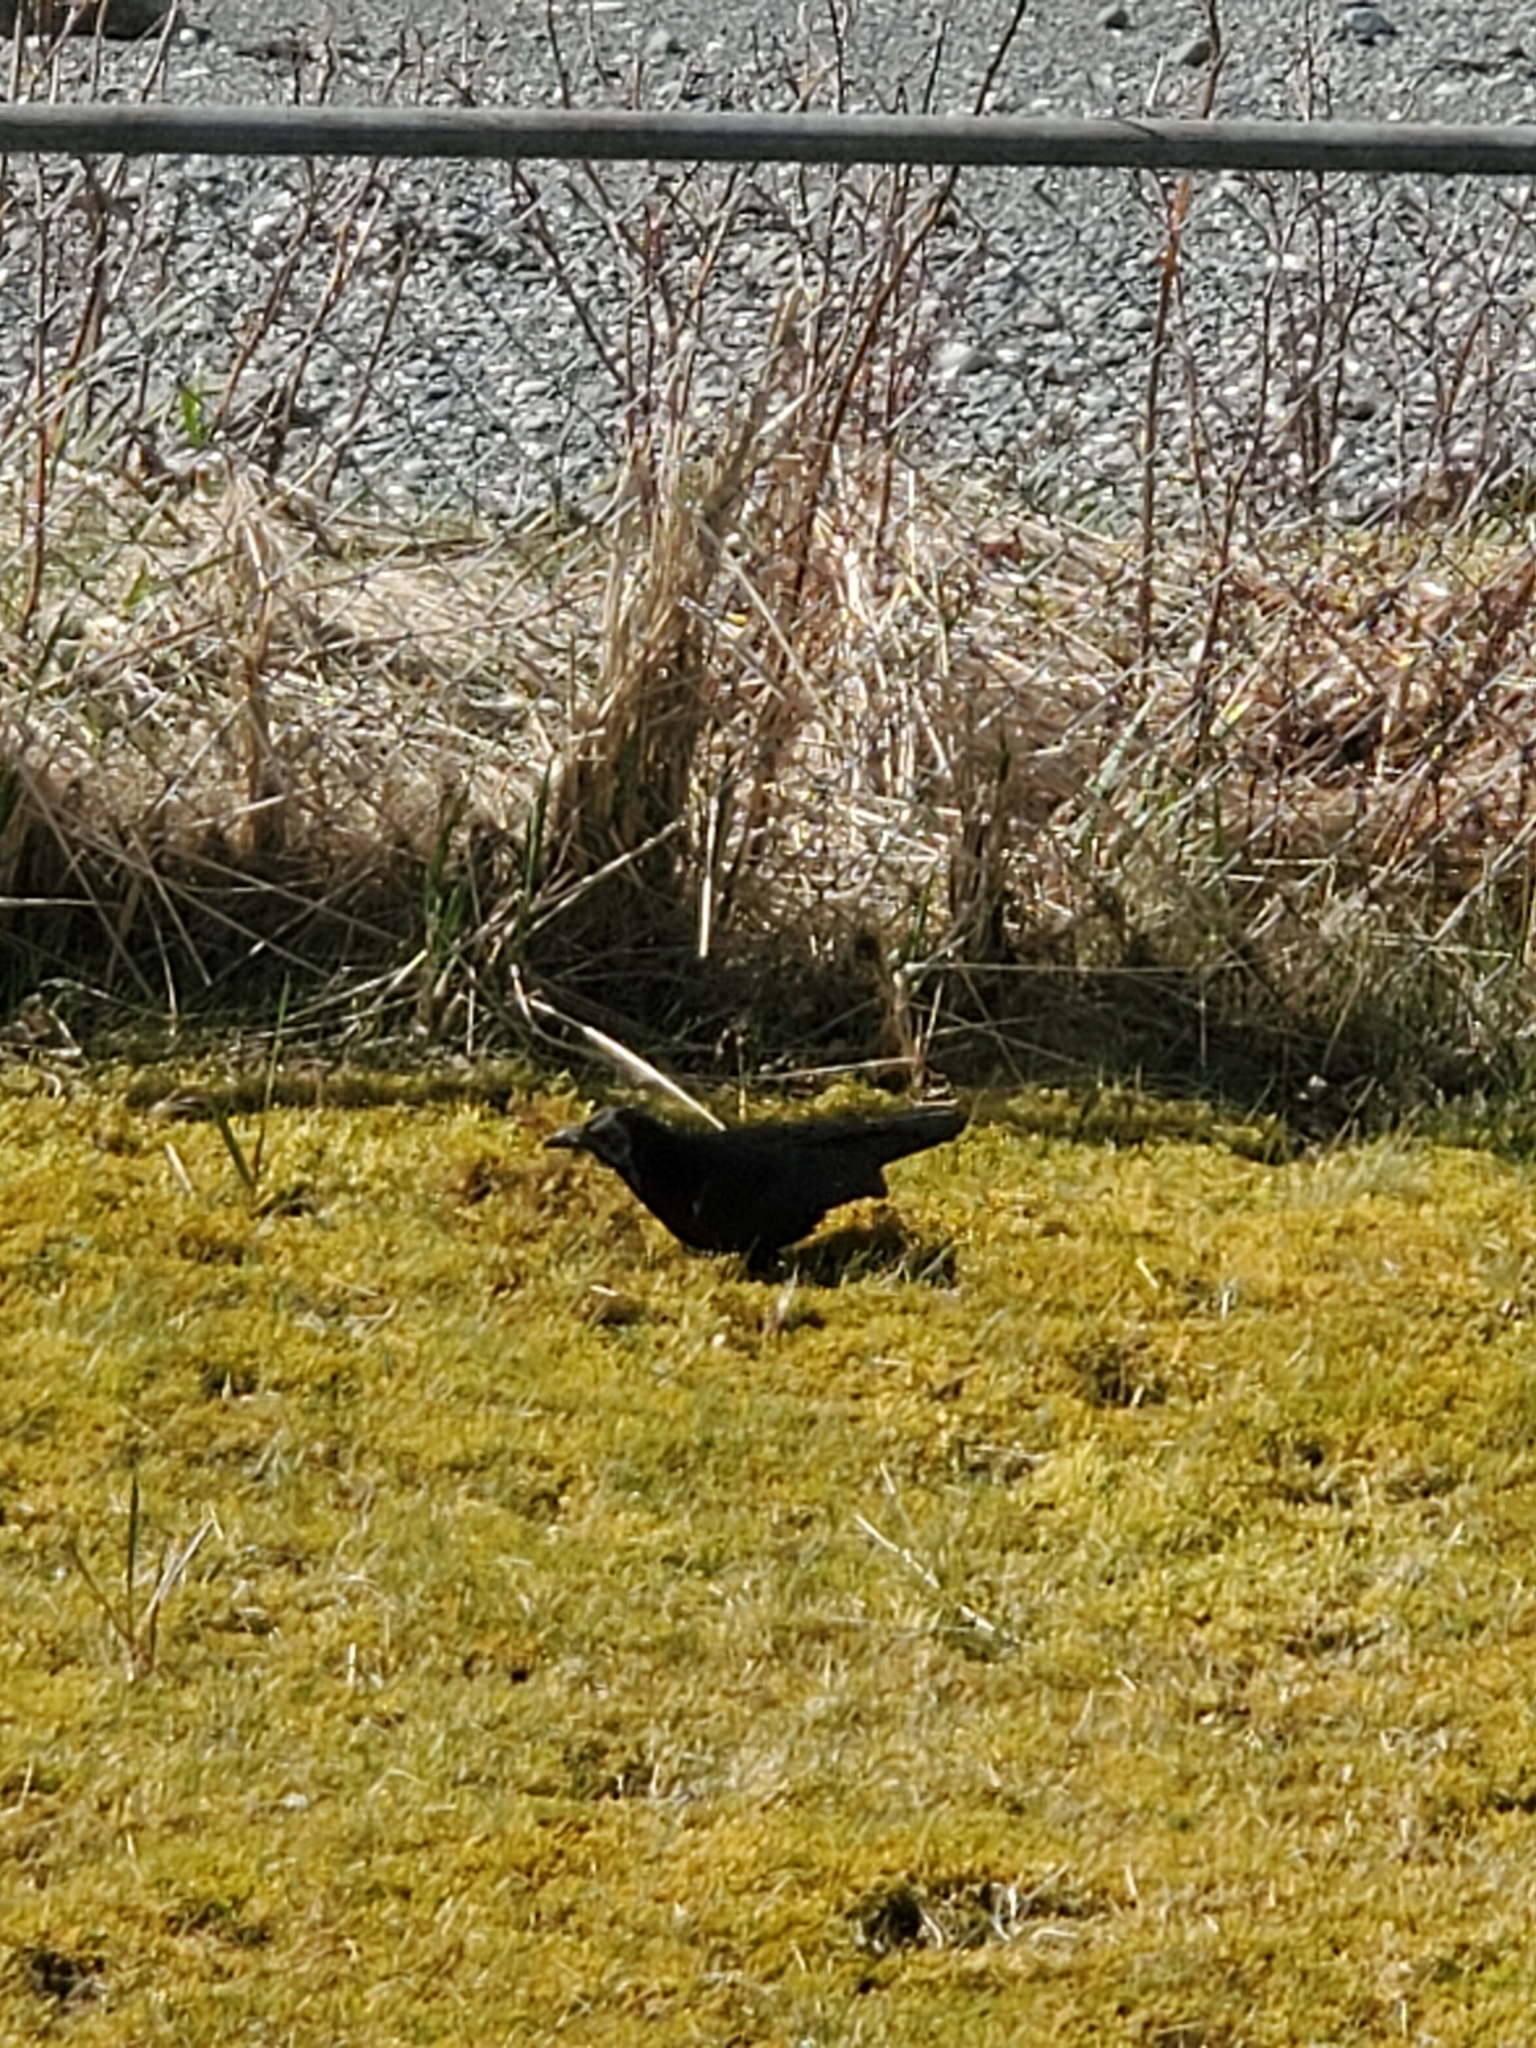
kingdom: Animalia
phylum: Chordata
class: Aves
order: Passeriformes
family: Corvidae
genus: Corvus
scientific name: Corvus brachyrhynchos
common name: American crow
